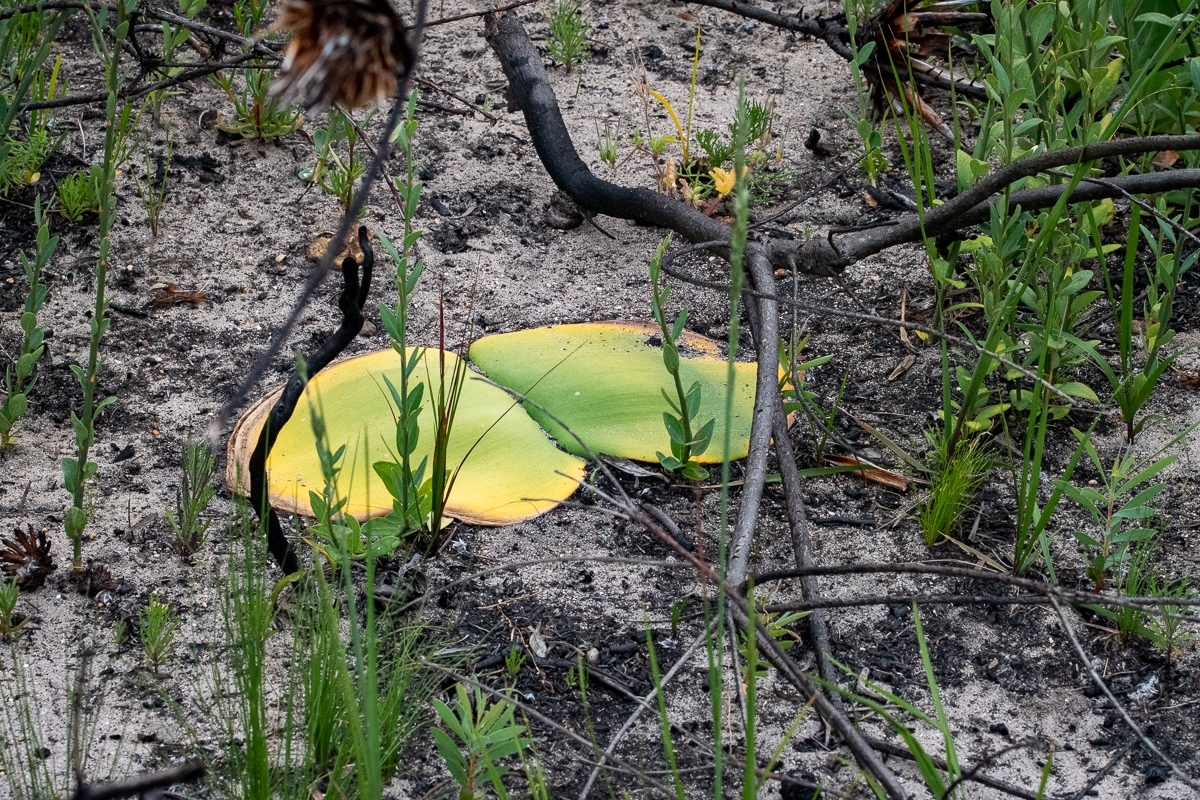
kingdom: Plantae
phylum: Tracheophyta
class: Liliopsida
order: Asparagales
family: Amaryllidaceae
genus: Haemanthus
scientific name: Haemanthus sanguineus
